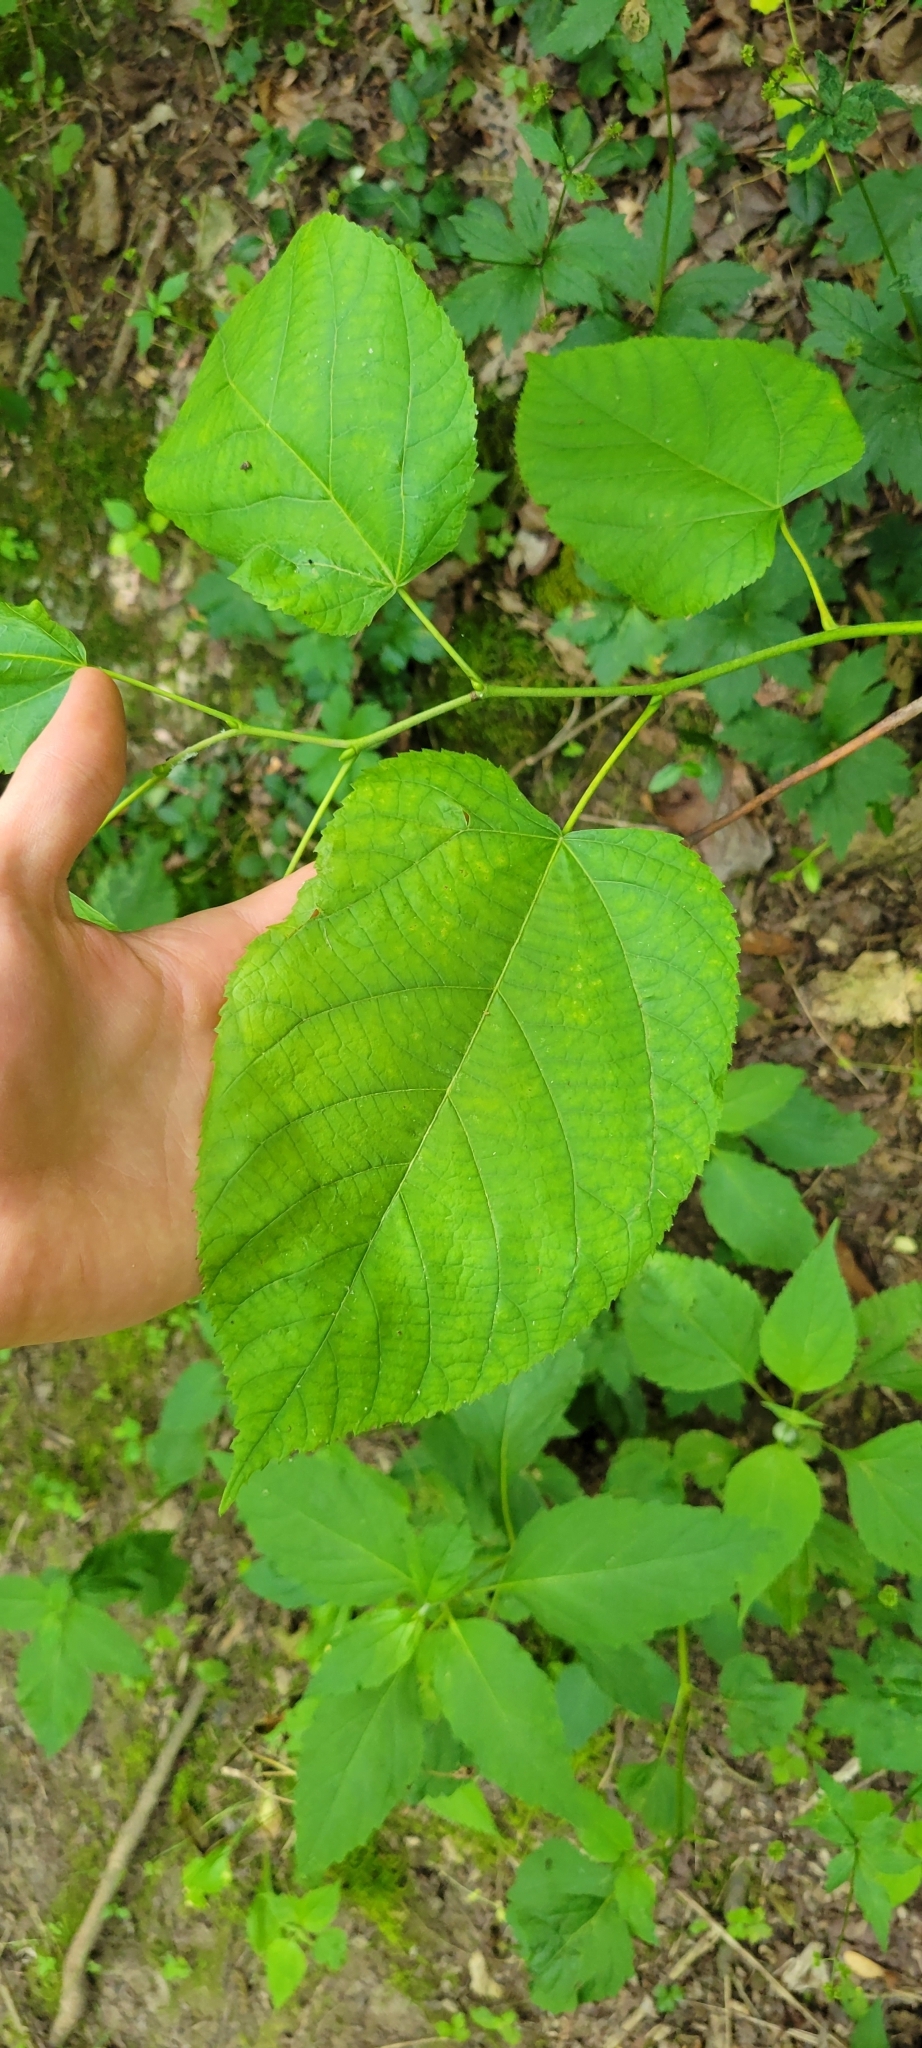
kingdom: Plantae
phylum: Tracheophyta
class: Magnoliopsida
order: Malvales
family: Malvaceae
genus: Tilia
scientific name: Tilia americana
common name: Basswood
